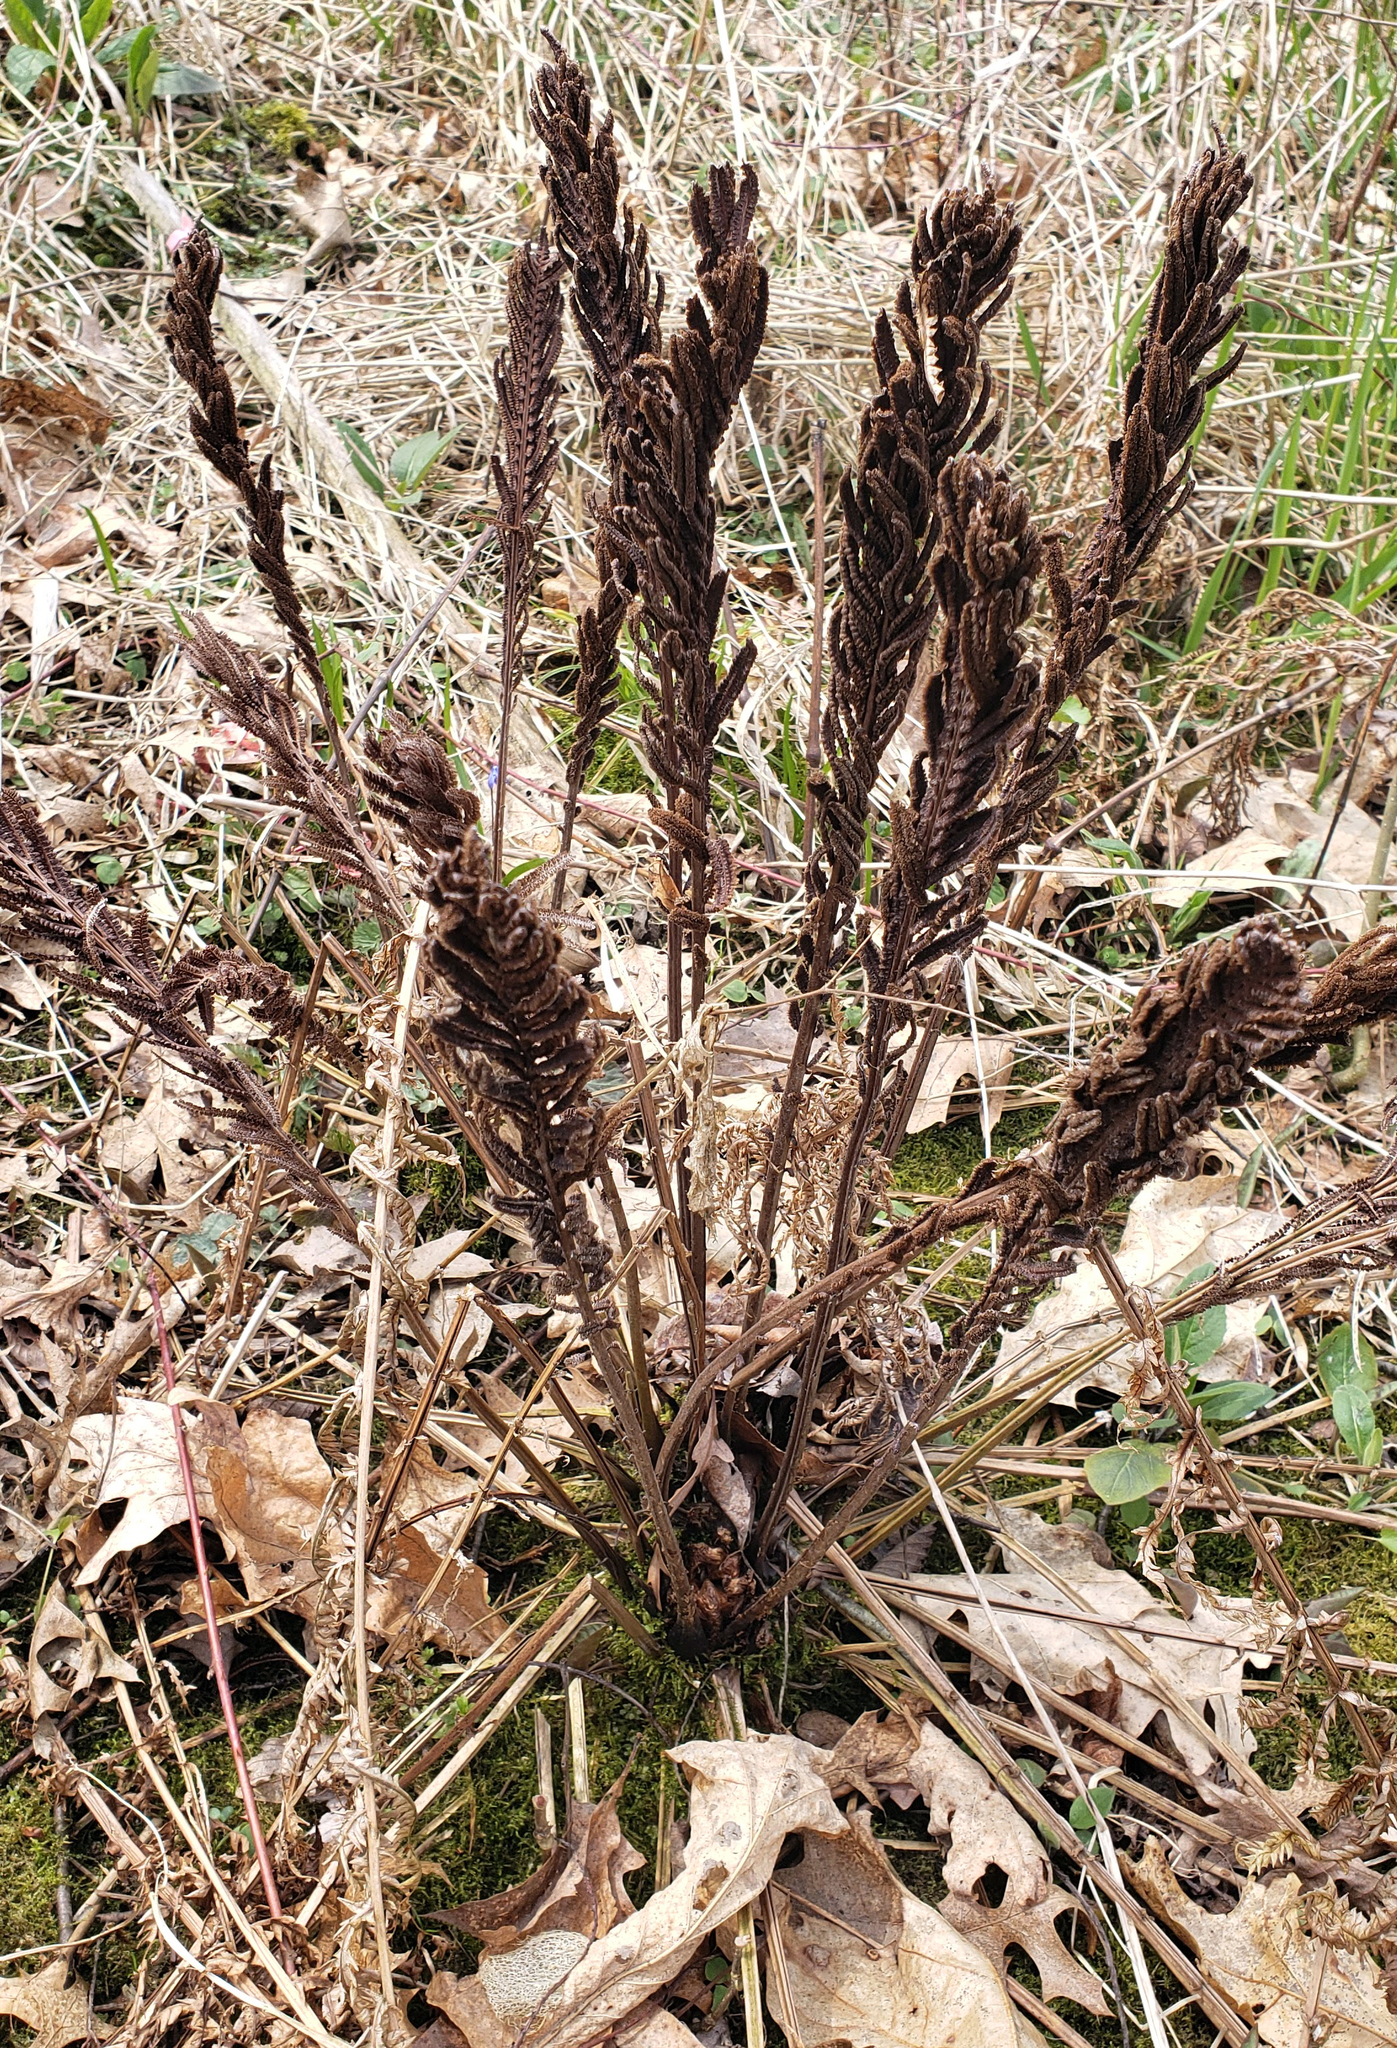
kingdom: Plantae
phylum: Tracheophyta
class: Polypodiopsida
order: Polypodiales
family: Onocleaceae
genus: Matteuccia
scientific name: Matteuccia struthiopteris
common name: Ostrich fern
